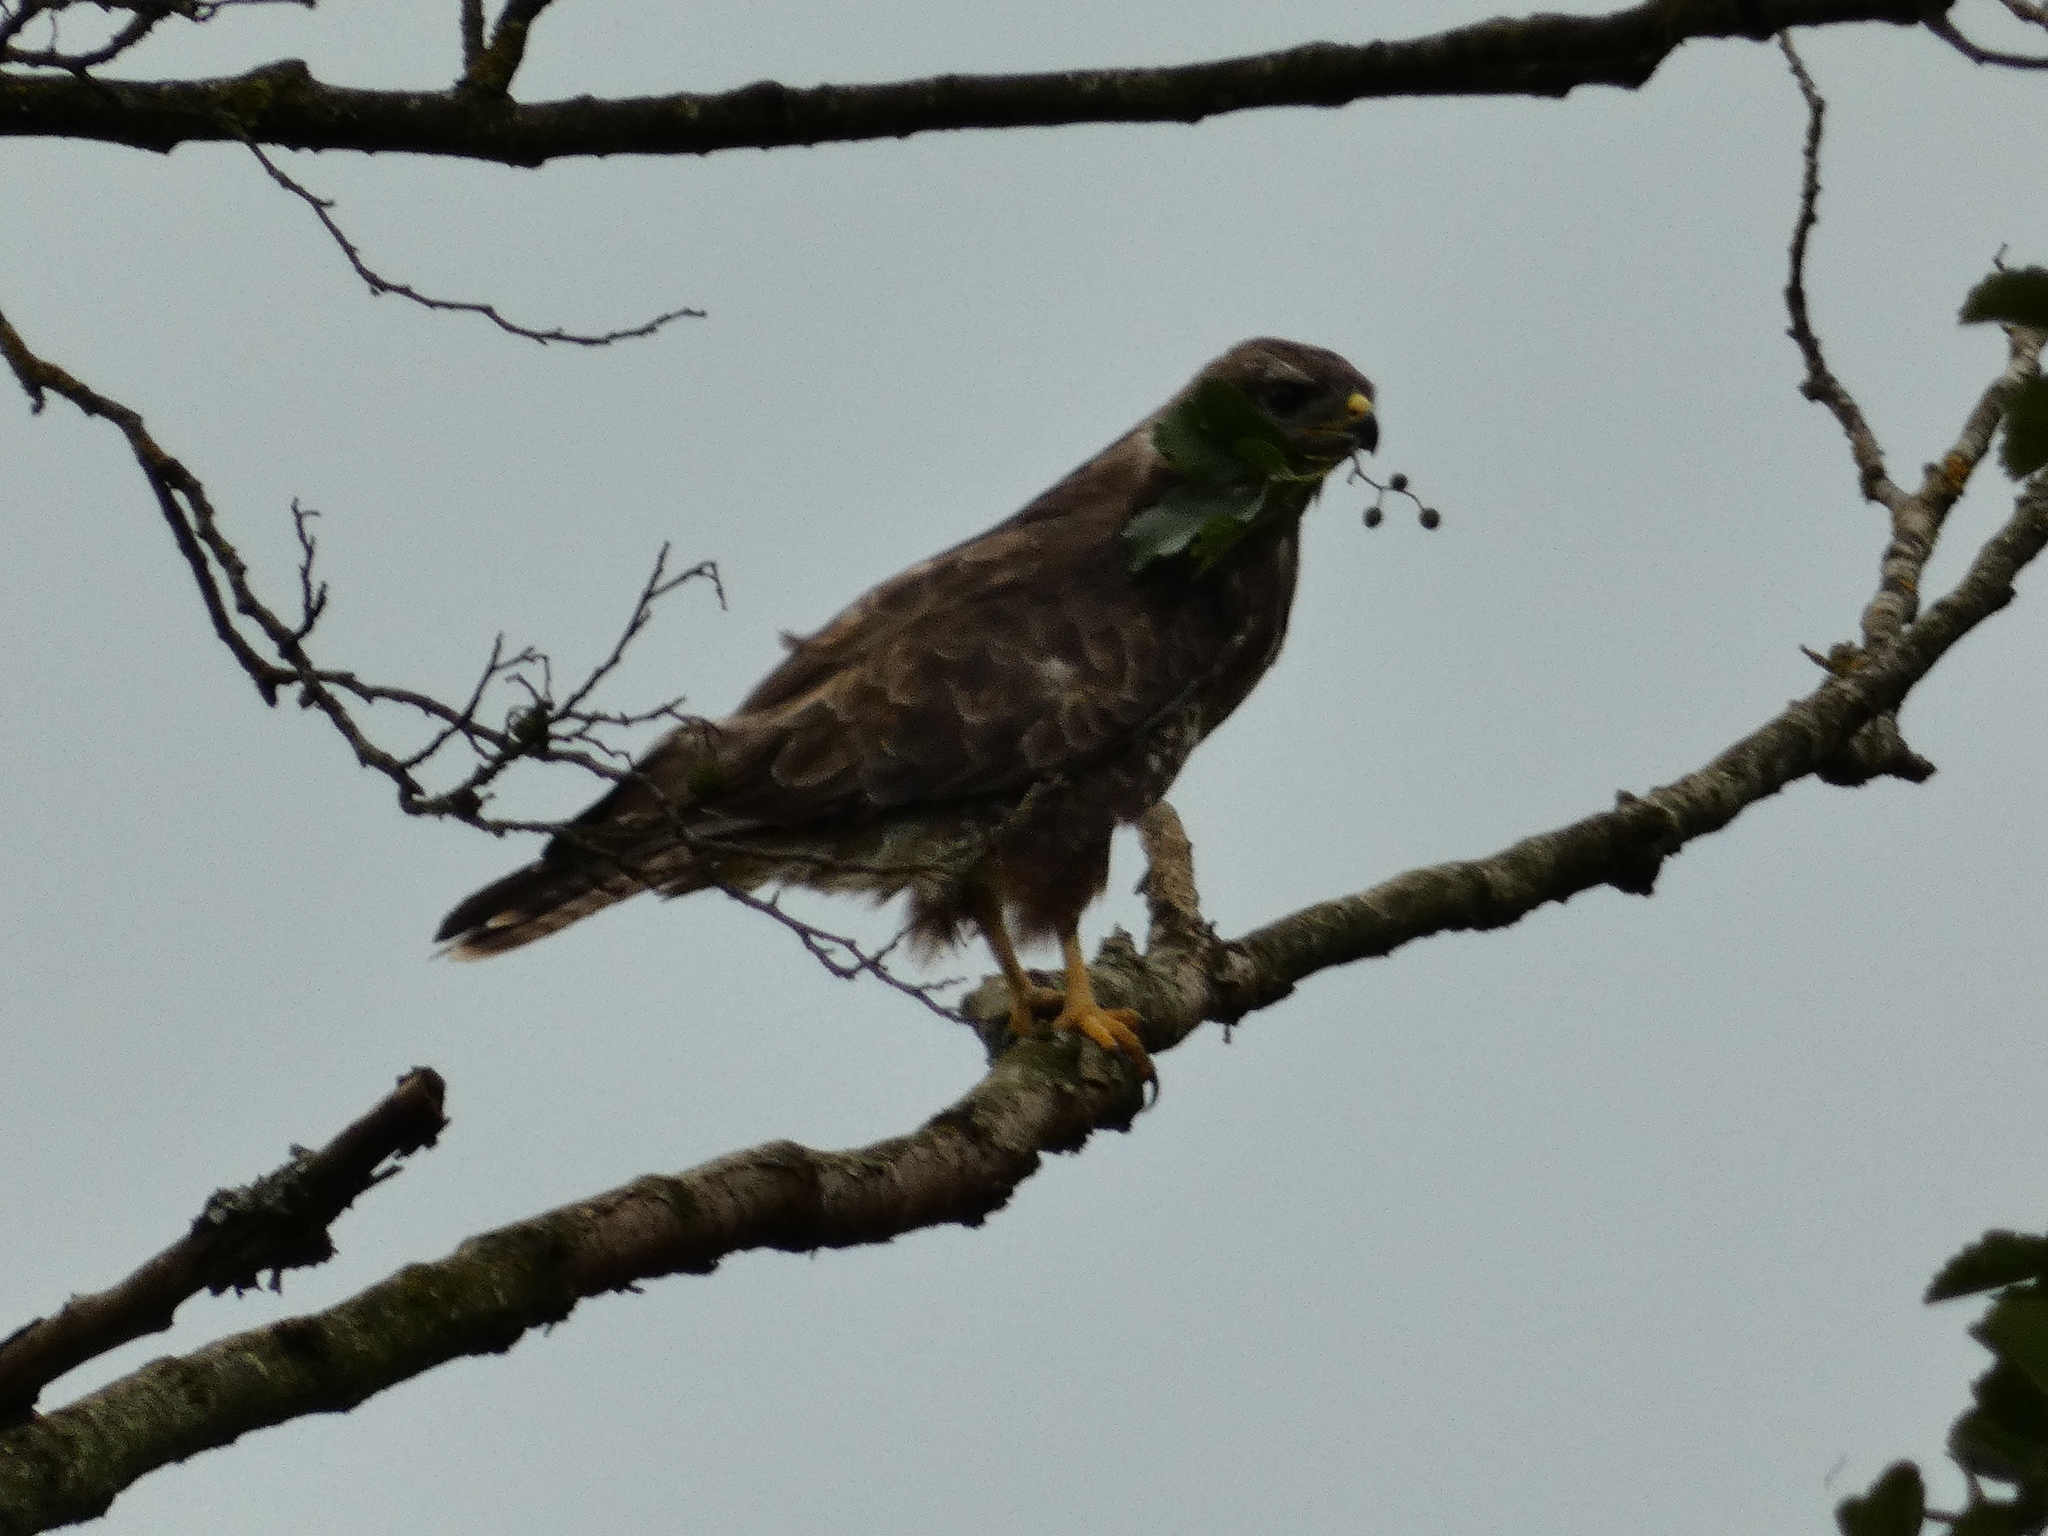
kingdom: Animalia
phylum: Chordata
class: Aves
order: Accipitriformes
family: Accipitridae
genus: Buteo
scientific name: Buteo buteo
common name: Common buzzard
